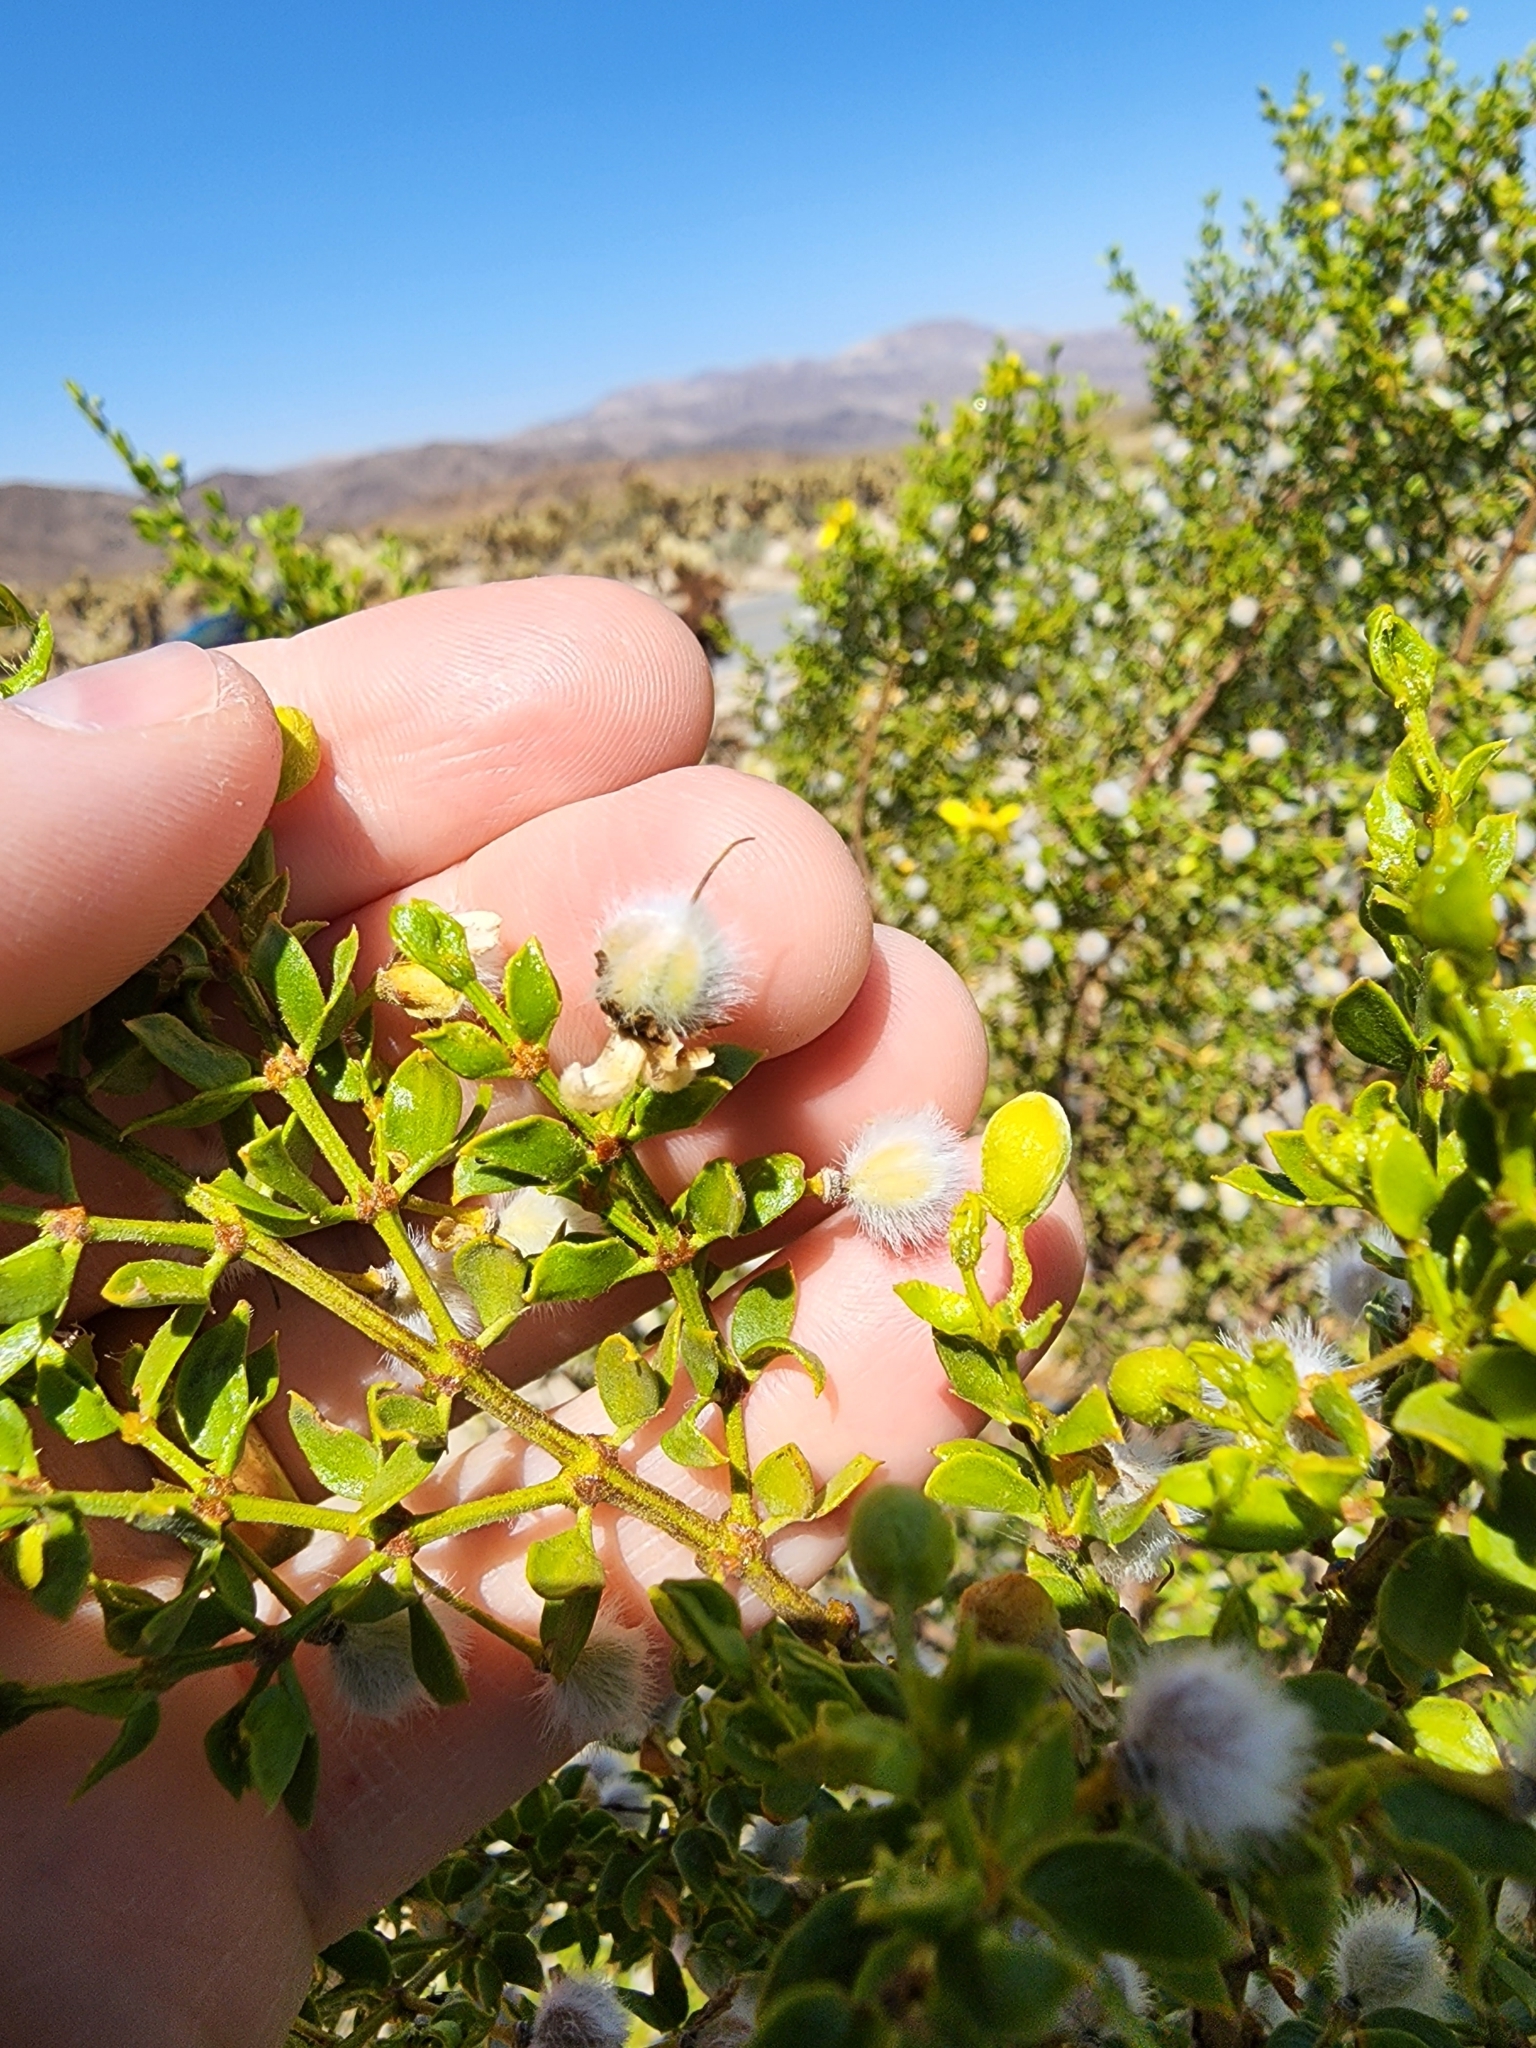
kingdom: Plantae
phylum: Tracheophyta
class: Magnoliopsida
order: Zygophyllales
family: Zygophyllaceae
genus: Larrea
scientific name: Larrea tridentata
